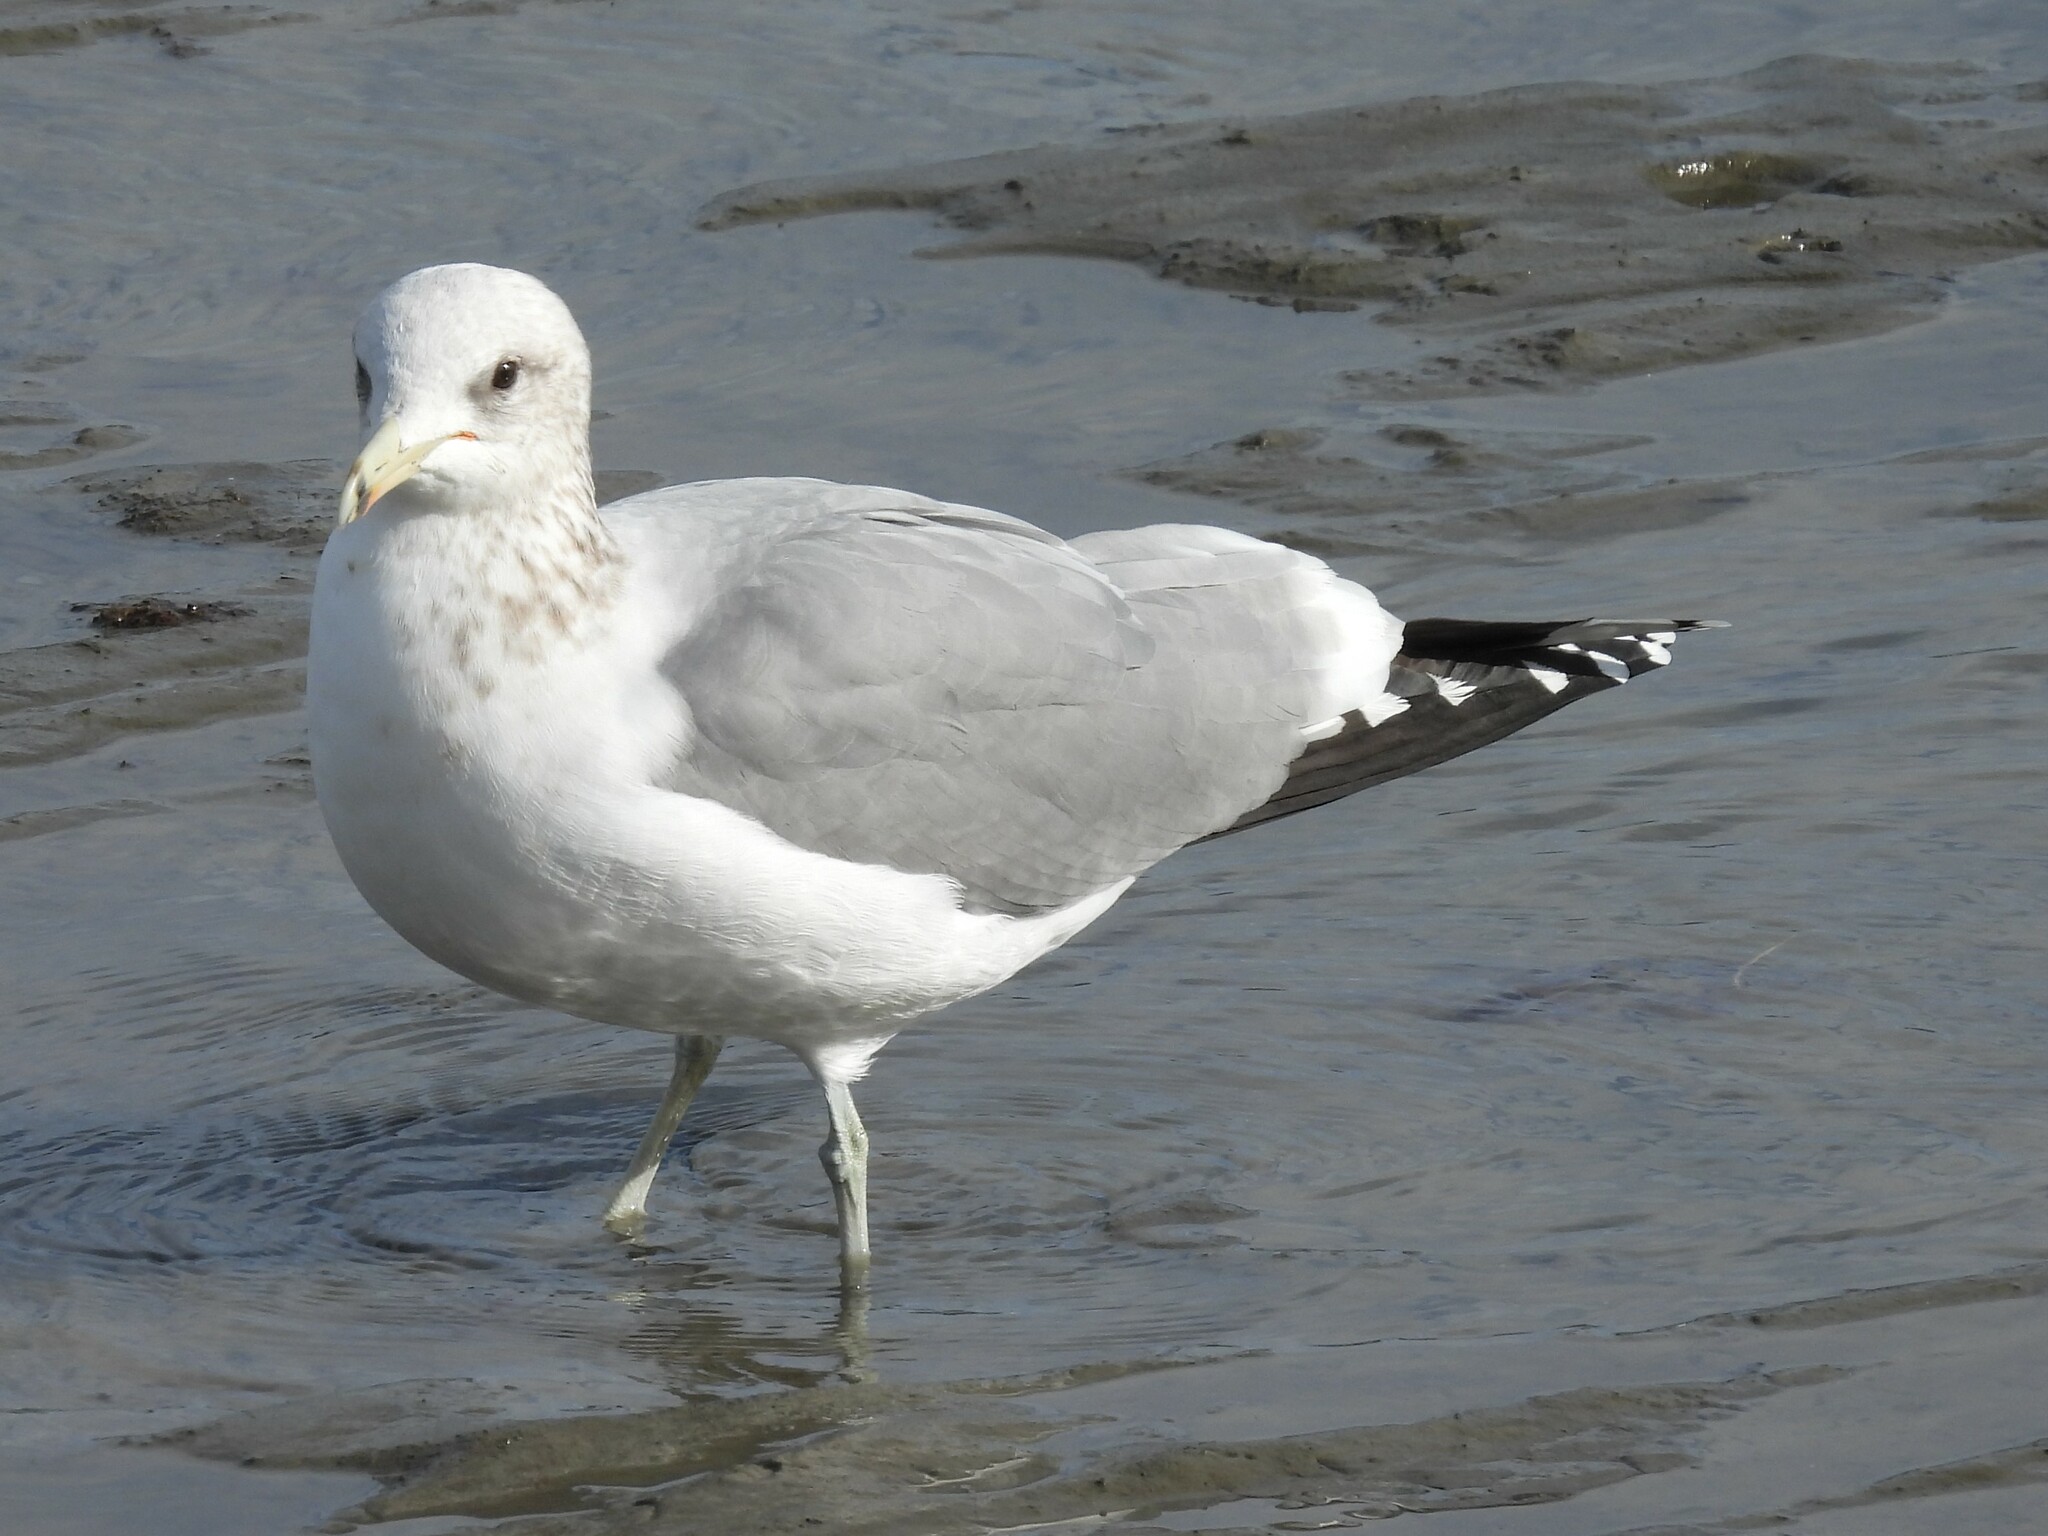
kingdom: Animalia
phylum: Chordata
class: Aves
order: Charadriiformes
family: Laridae
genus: Larus
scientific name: Larus californicus
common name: California gull
